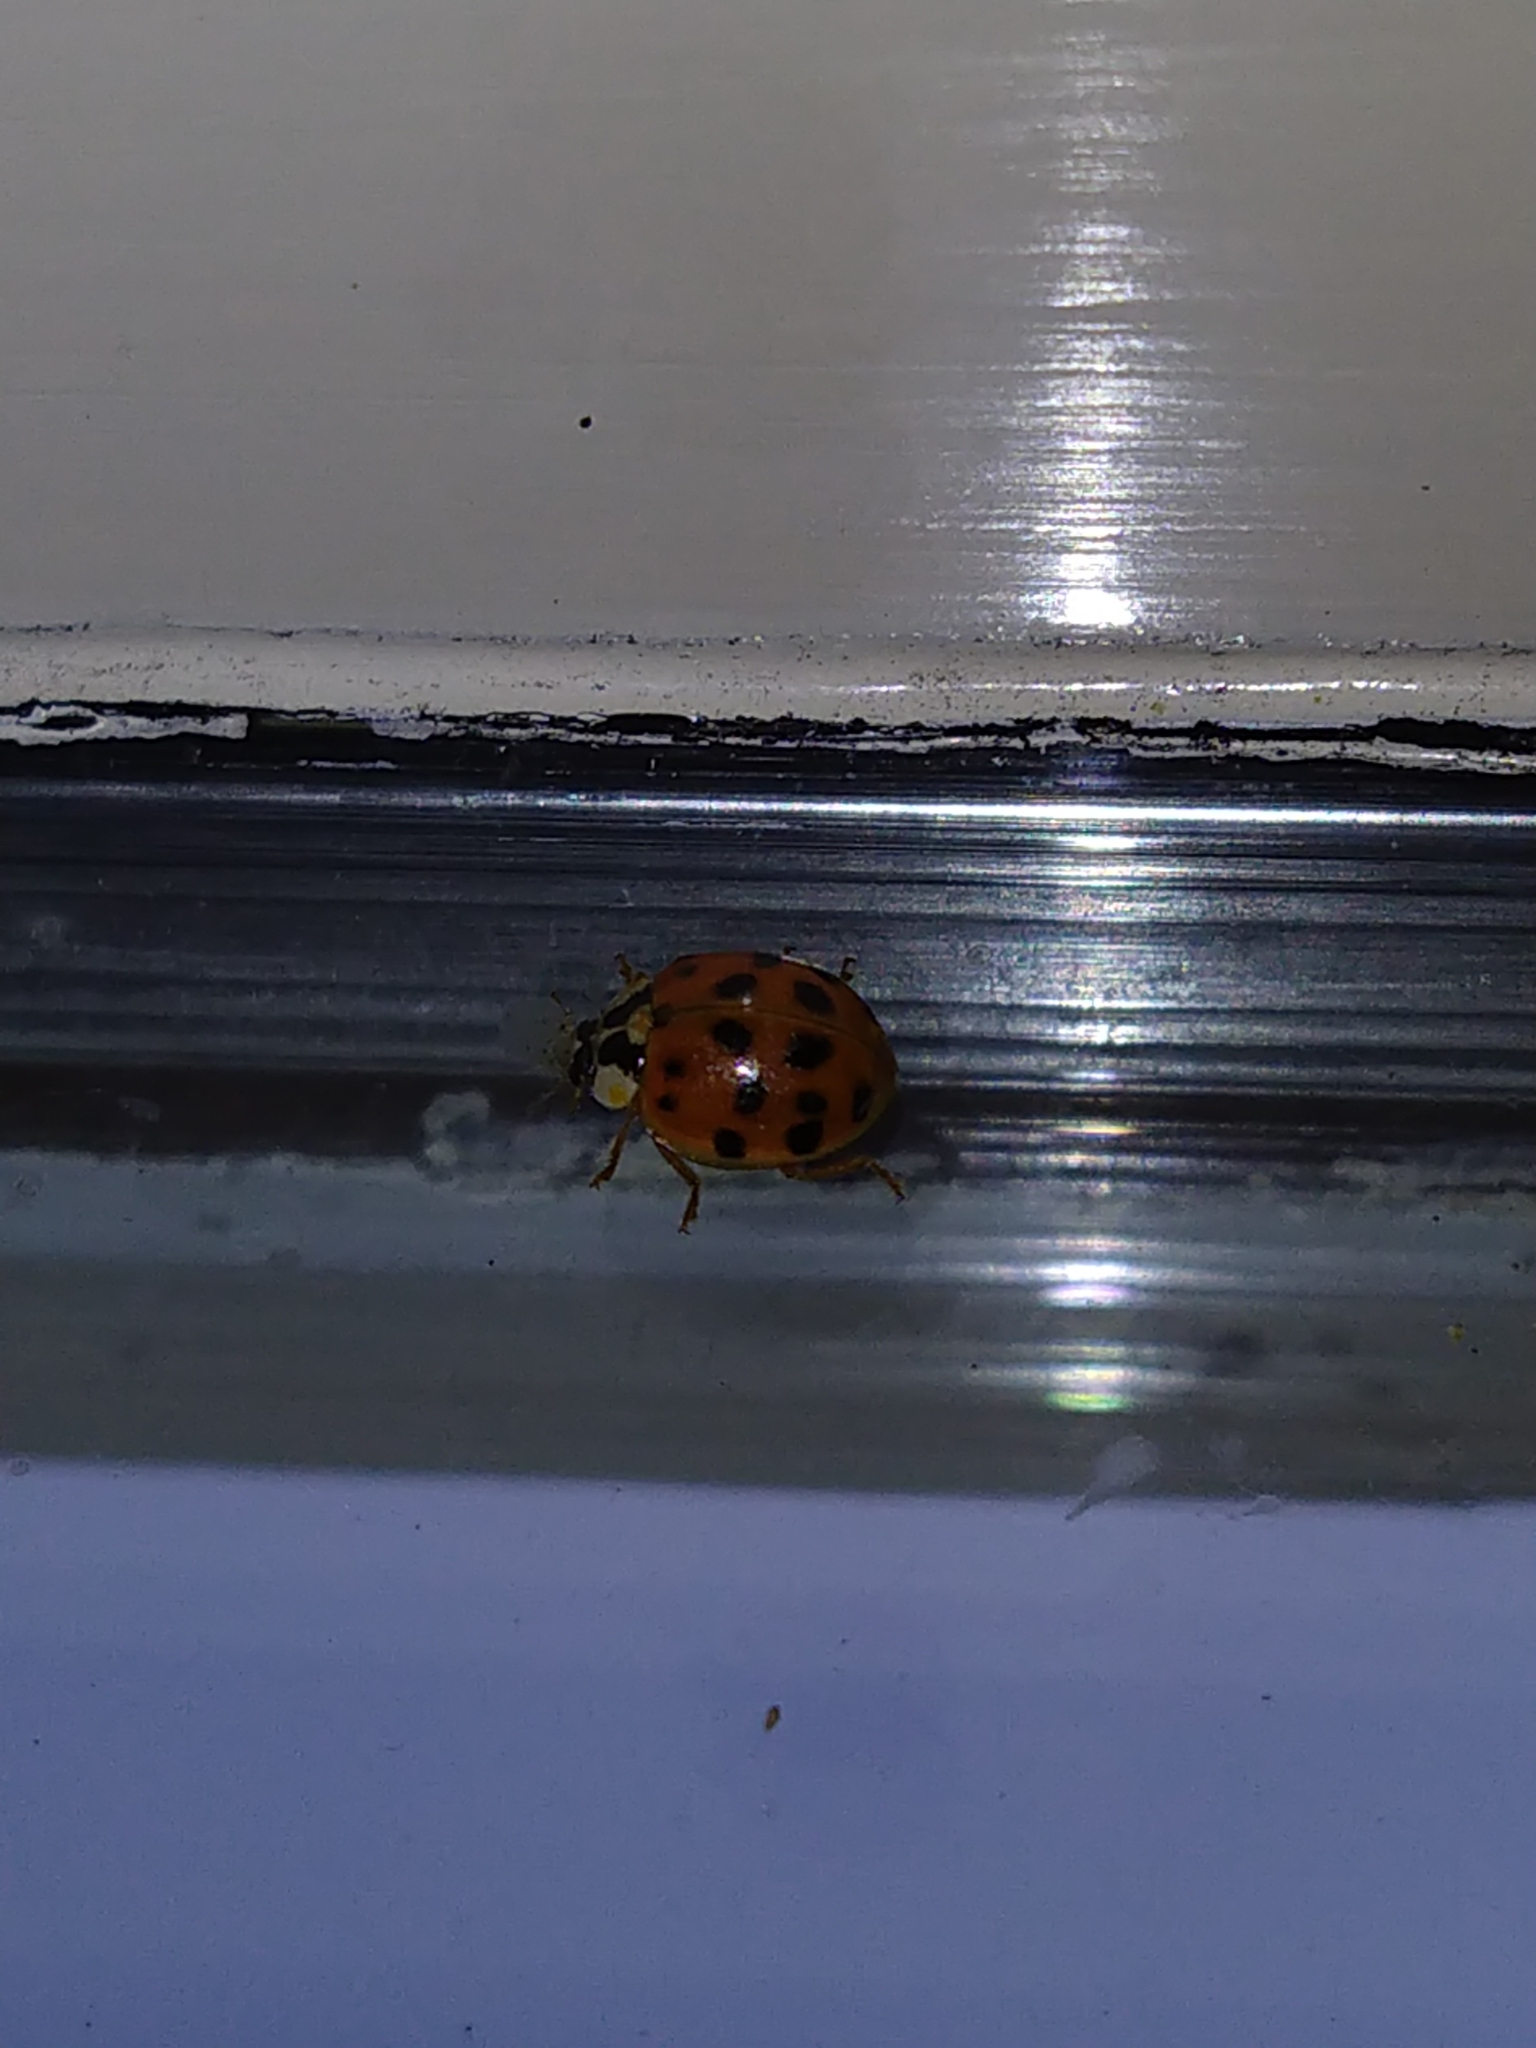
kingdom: Animalia
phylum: Arthropoda
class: Insecta
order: Coleoptera
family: Coccinellidae
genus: Harmonia
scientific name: Harmonia axyridis
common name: Harlequin ladybird
